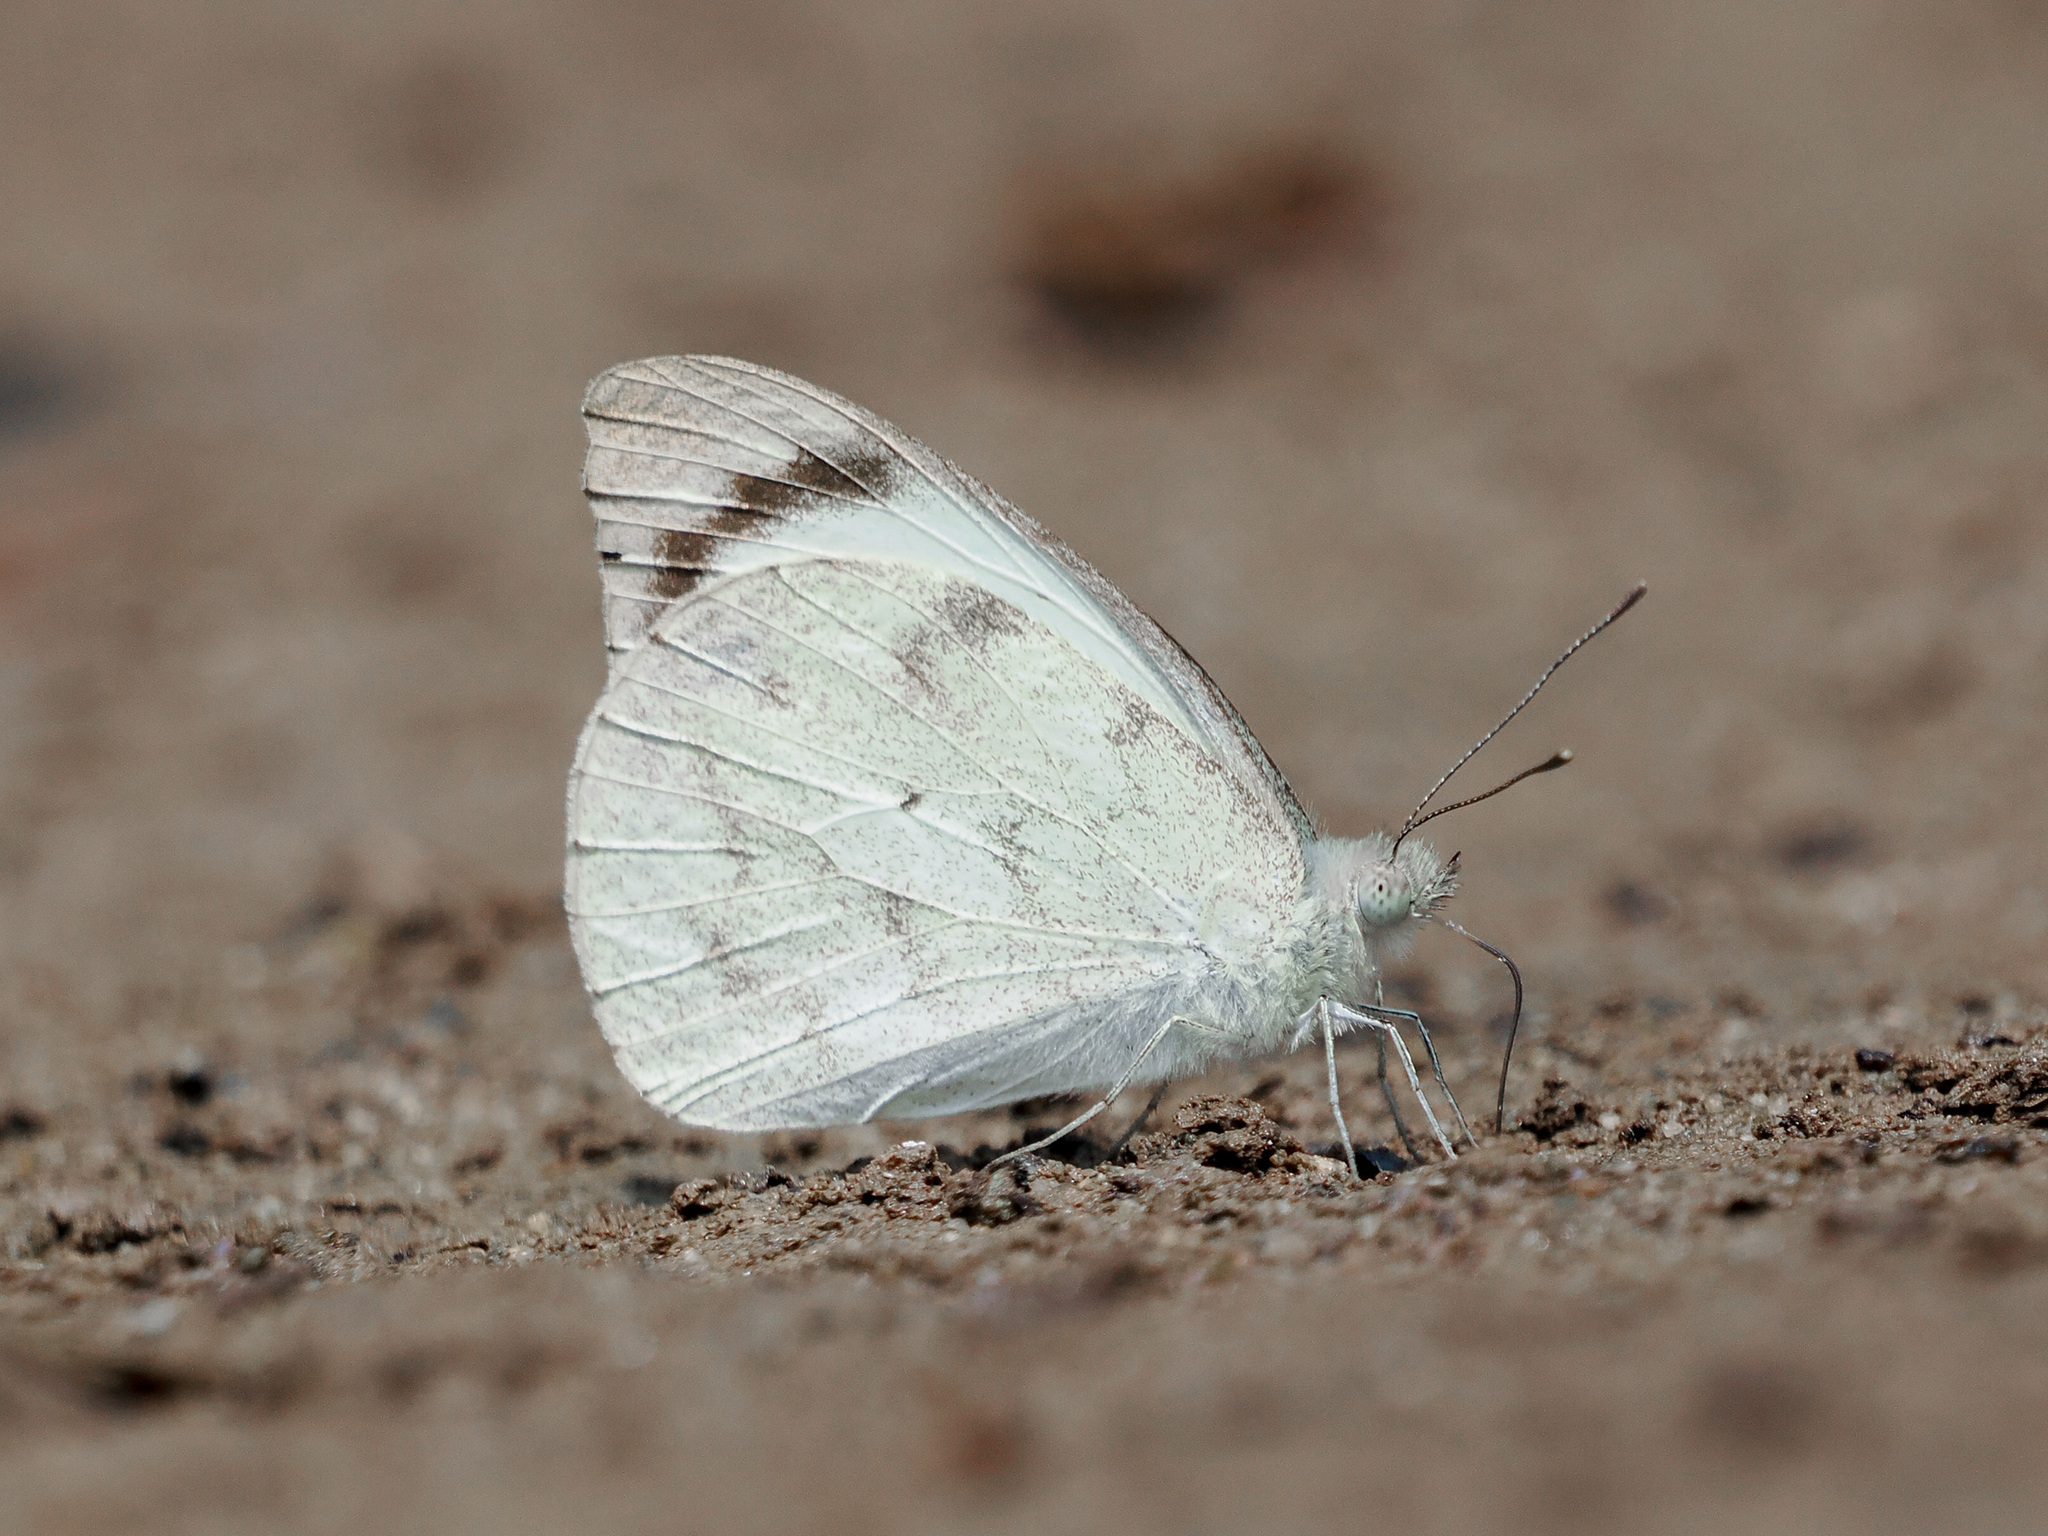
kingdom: Animalia
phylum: Arthropoda
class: Insecta
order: Lepidoptera
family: Pieridae
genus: Appias
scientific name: Appias indra
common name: Plain puffin
